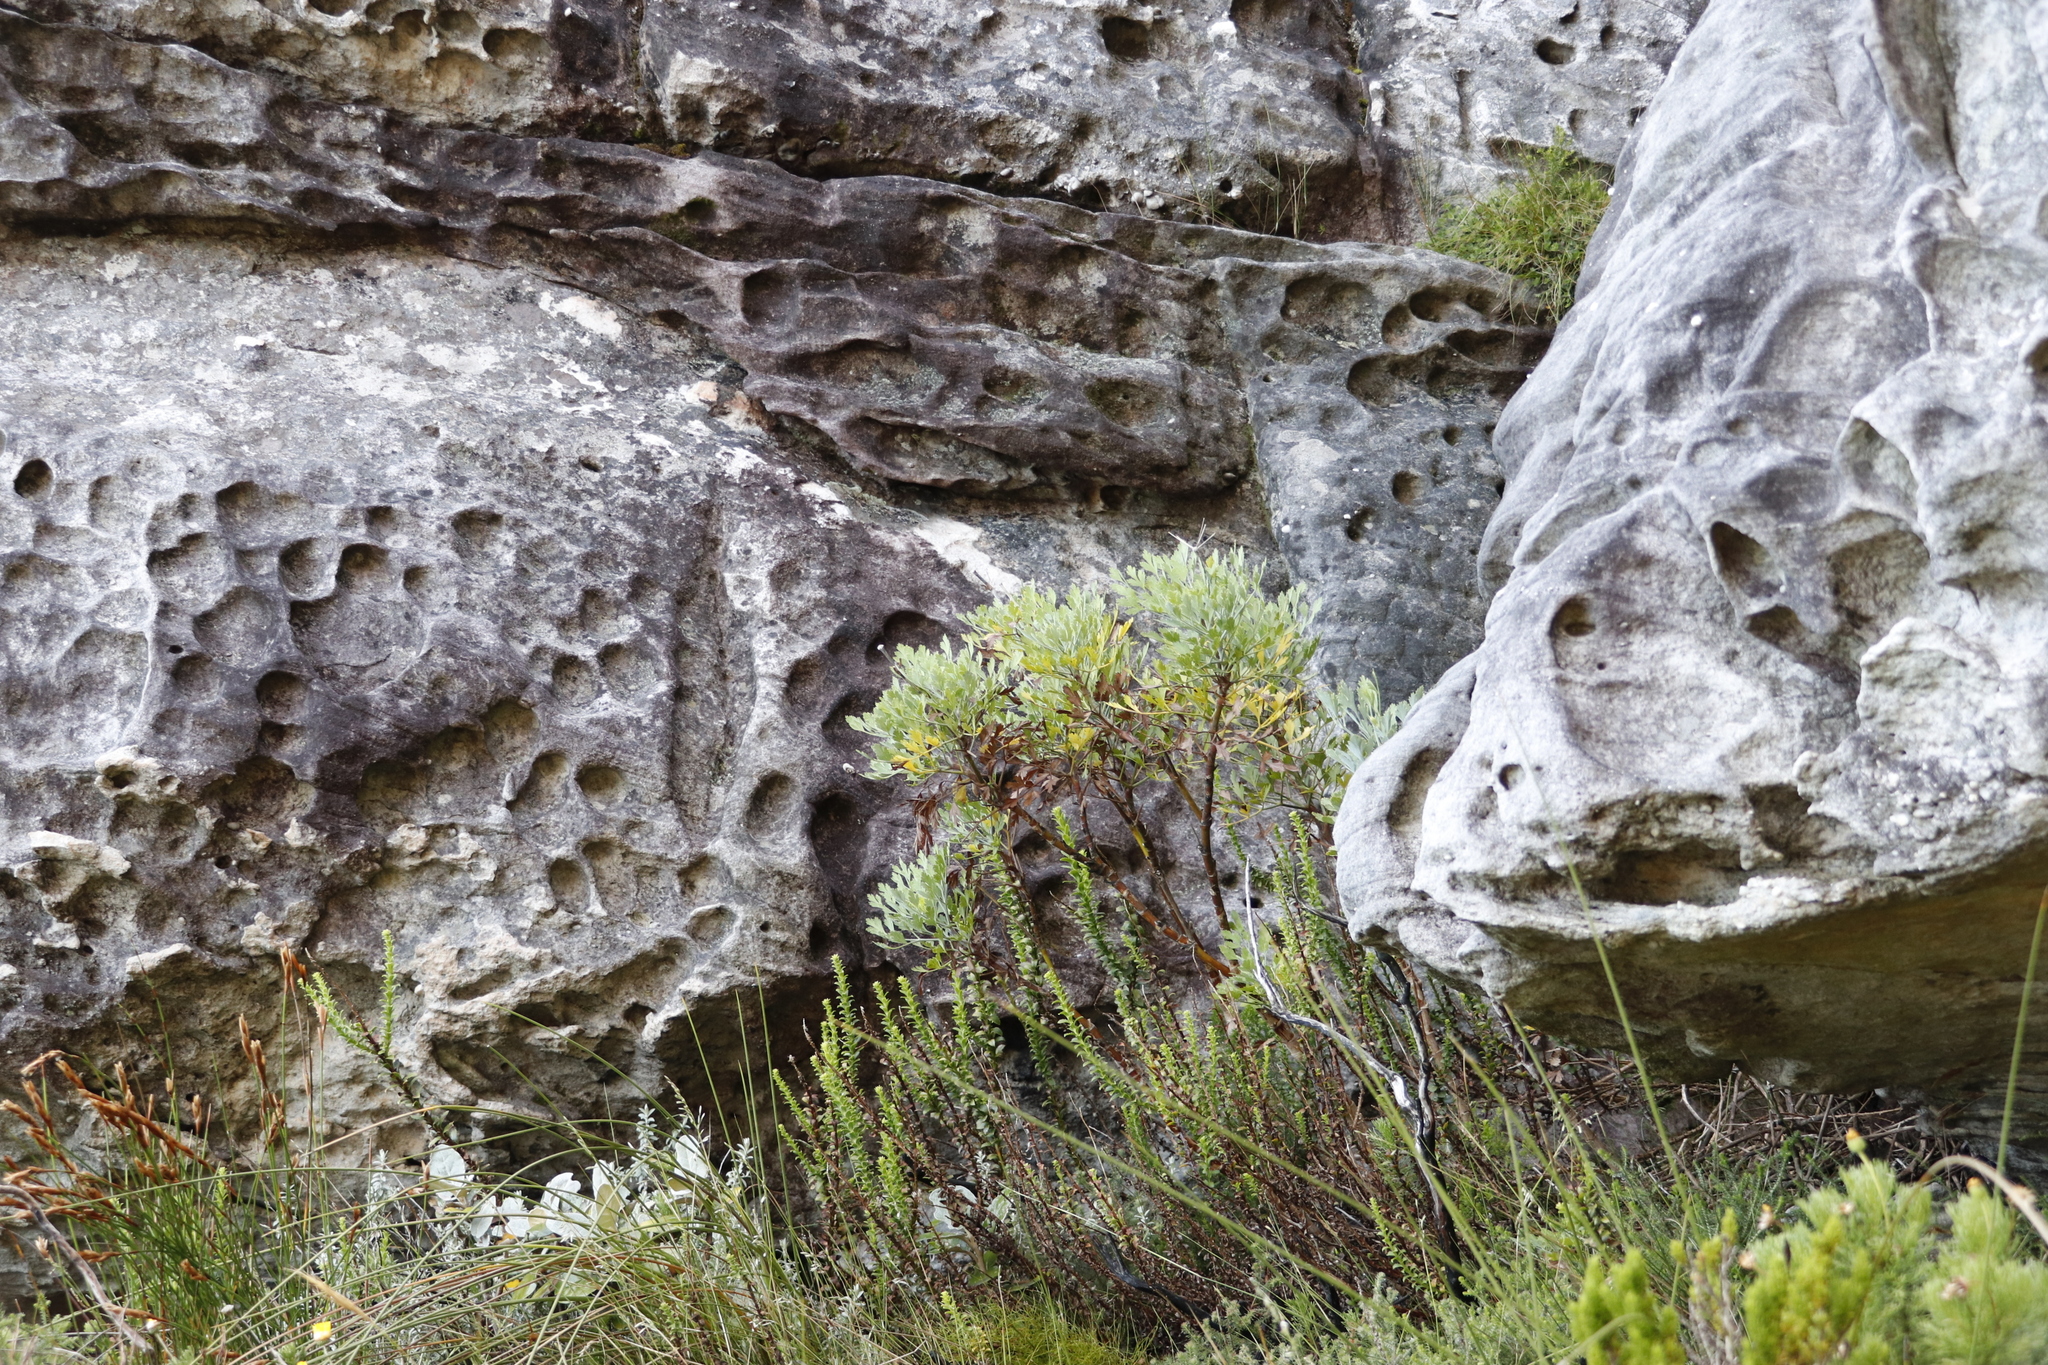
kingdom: Plantae
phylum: Tracheophyta
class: Magnoliopsida
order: Apiales
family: Apiaceae
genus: Notobubon
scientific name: Notobubon galbanum
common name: Blisterbush
